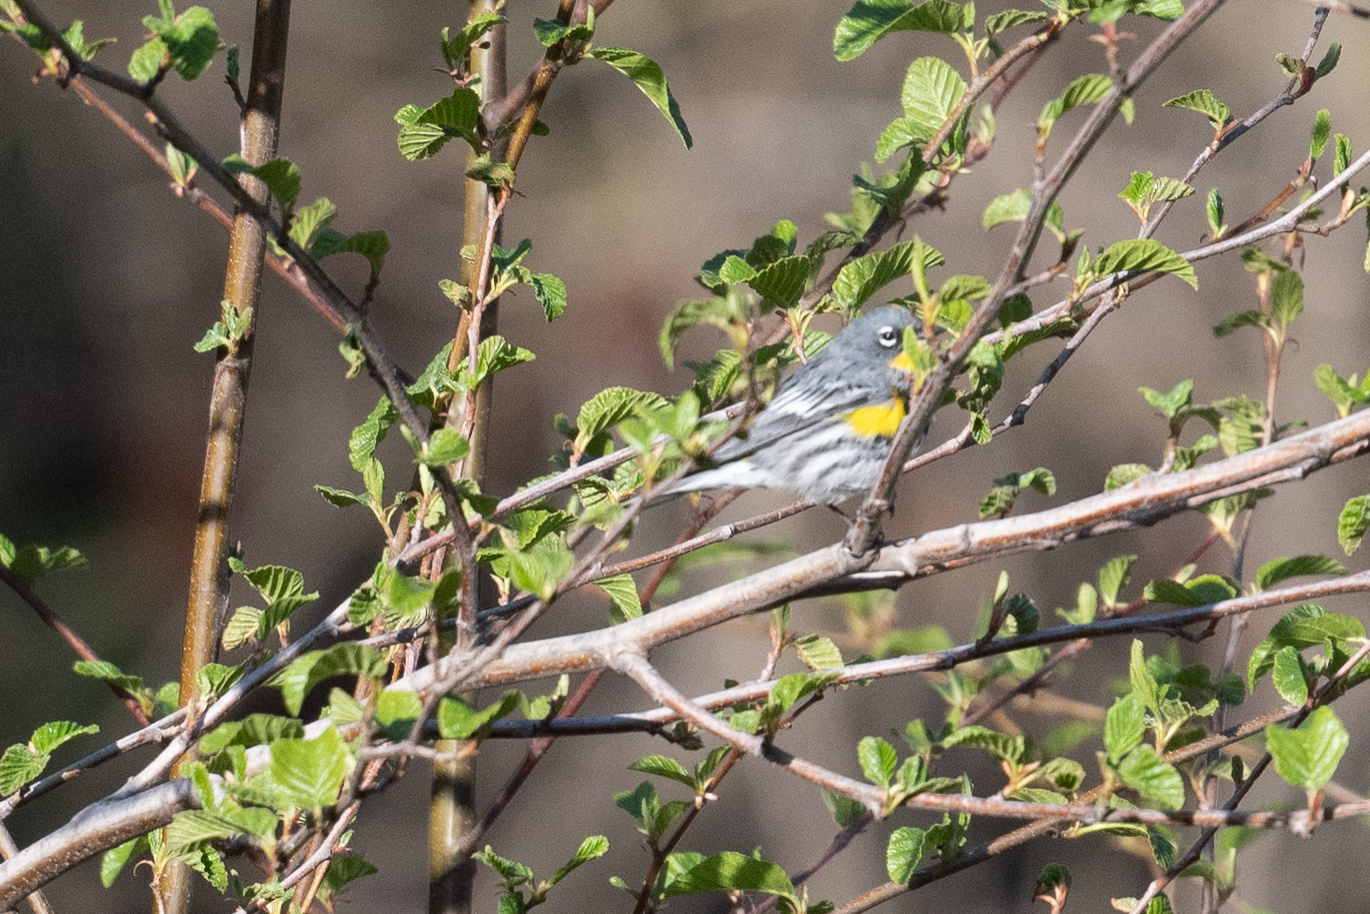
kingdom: Animalia
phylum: Chordata
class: Aves
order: Passeriformes
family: Parulidae
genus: Setophaga
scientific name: Setophaga coronata
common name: Myrtle warbler
